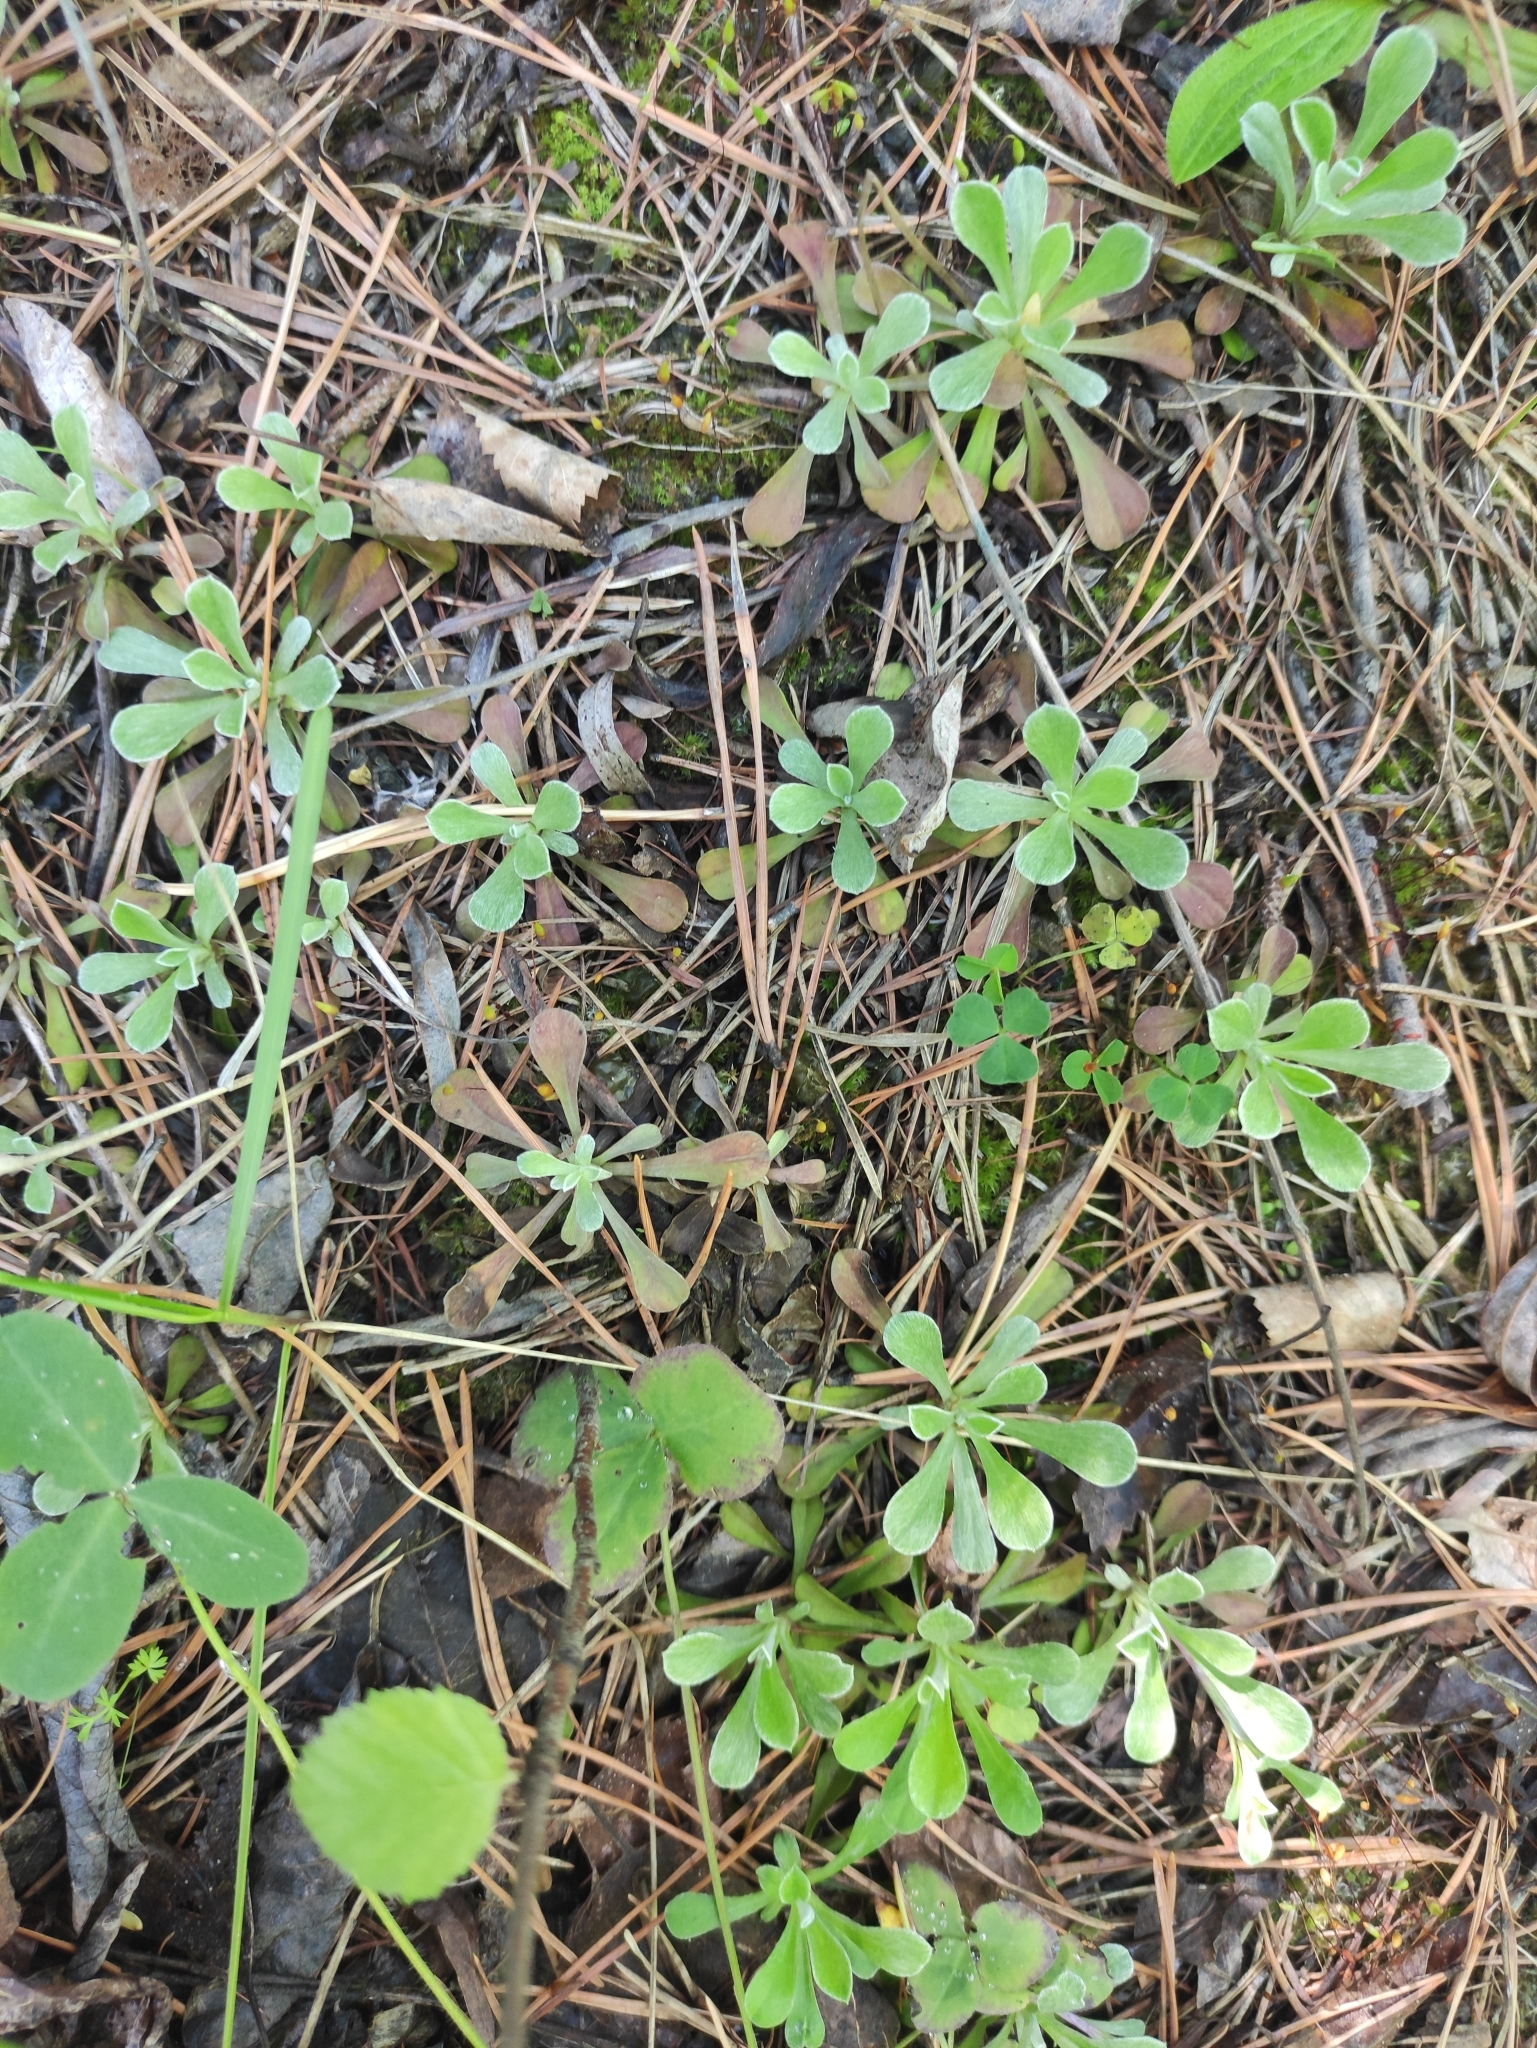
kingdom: Plantae
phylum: Tracheophyta
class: Magnoliopsida
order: Asterales
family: Asteraceae
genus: Antennaria
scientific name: Antennaria dioica
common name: Mountain everlasting
